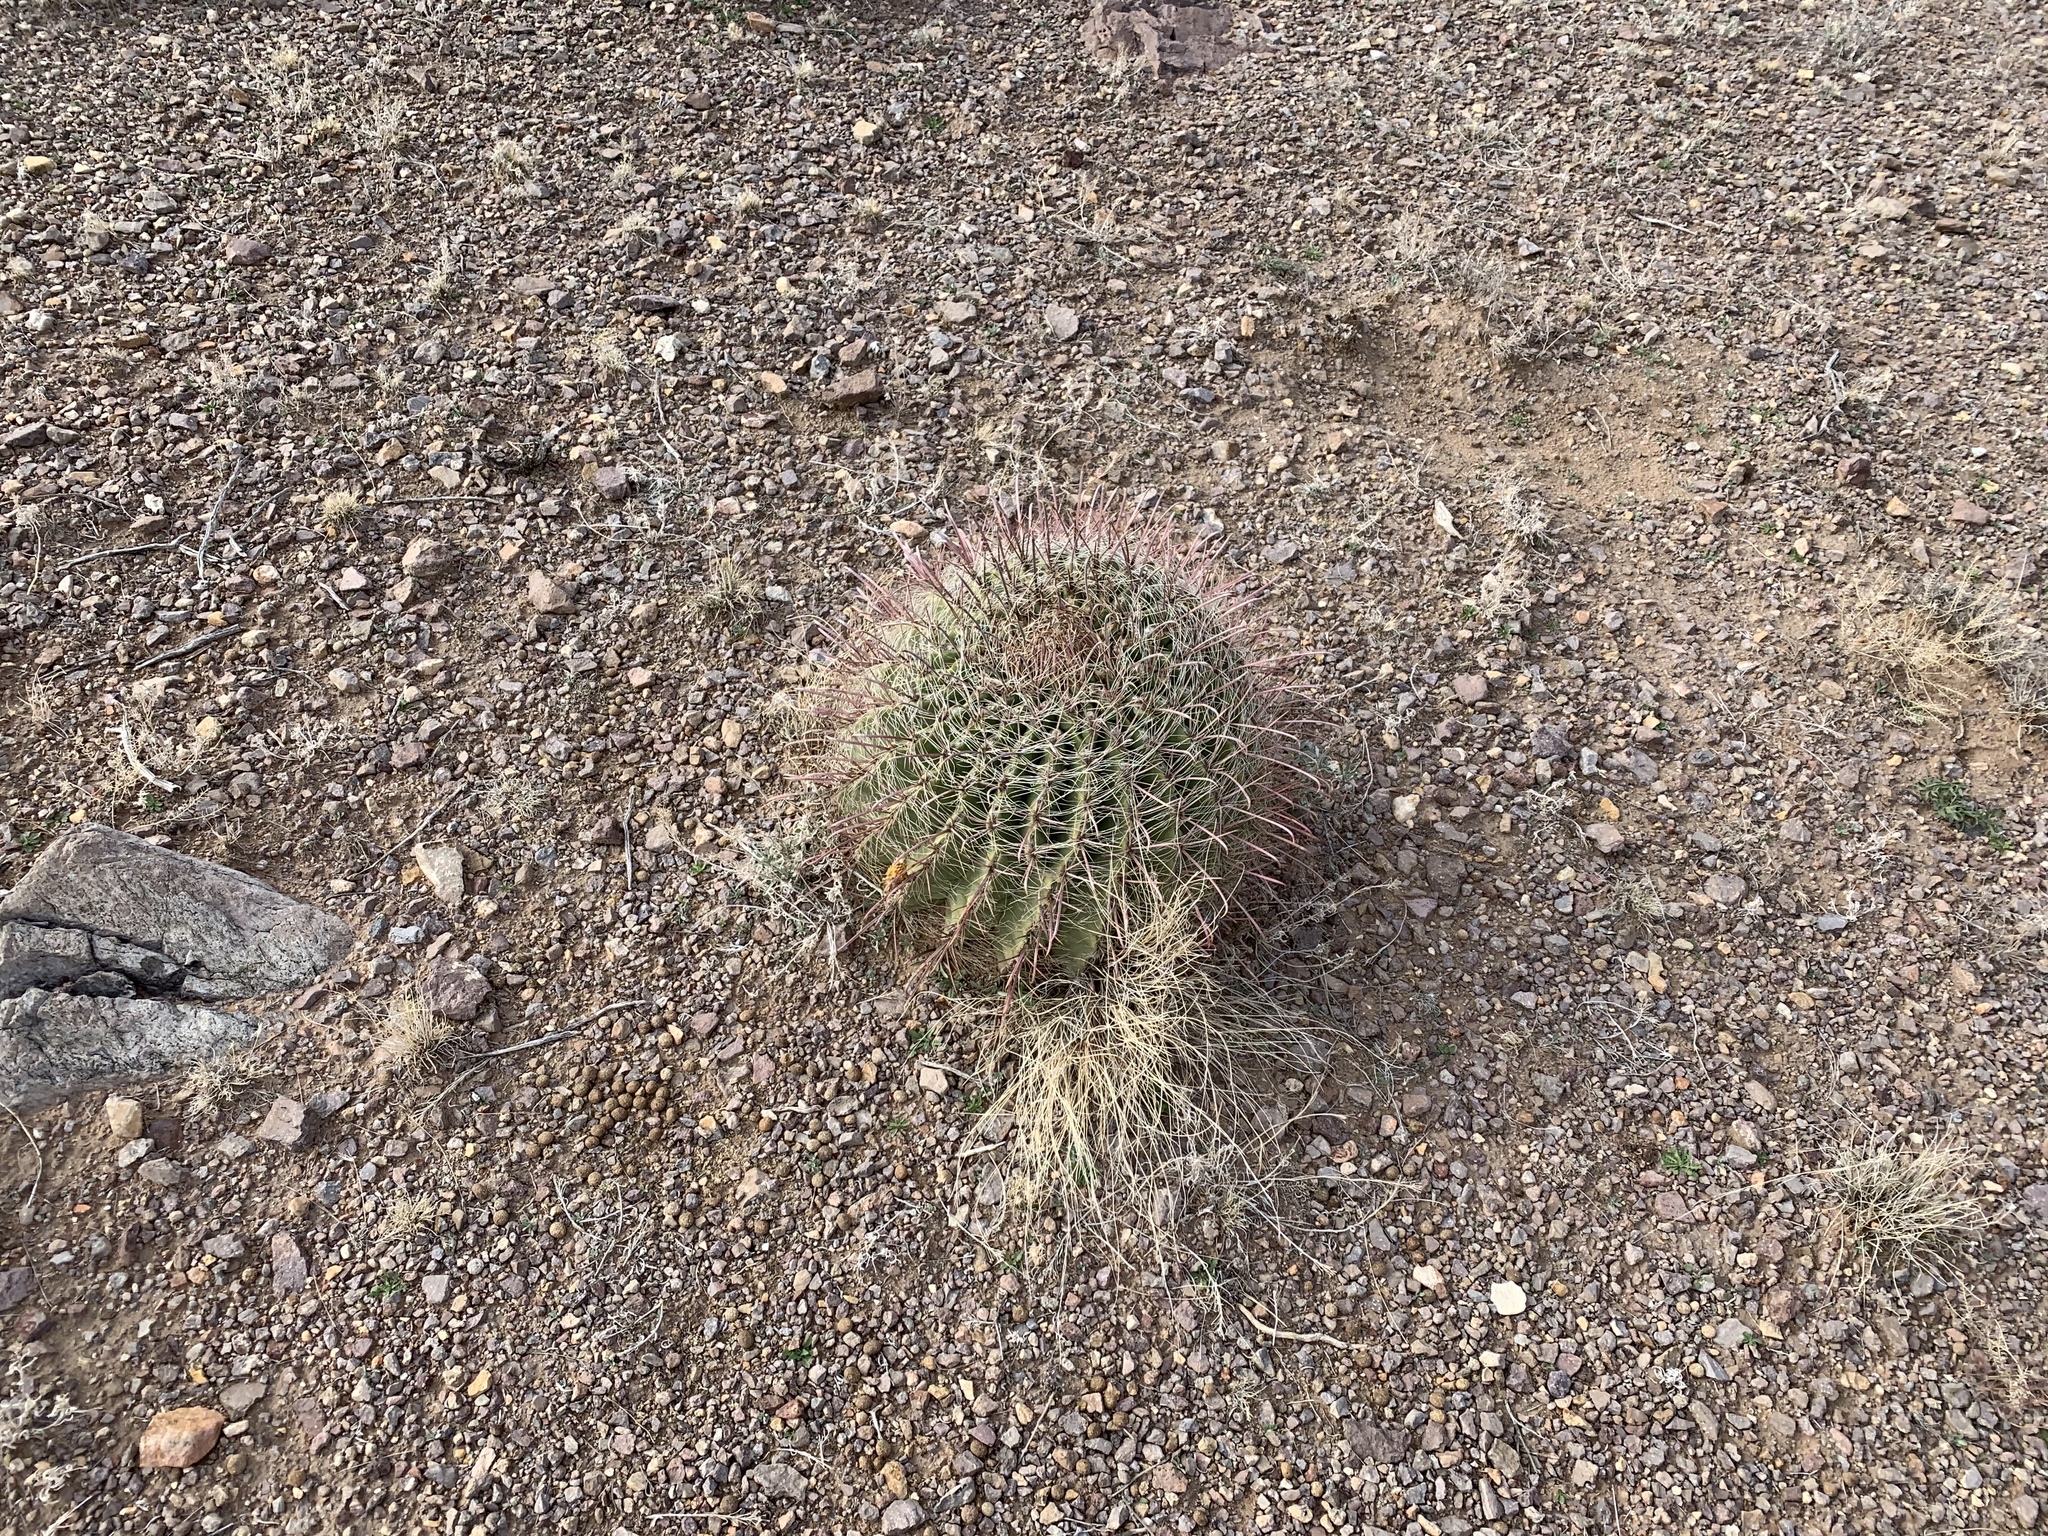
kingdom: Plantae
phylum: Tracheophyta
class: Magnoliopsida
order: Caryophyllales
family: Cactaceae
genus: Ferocactus
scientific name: Ferocactus wislizeni
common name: Candy barrel cactus
